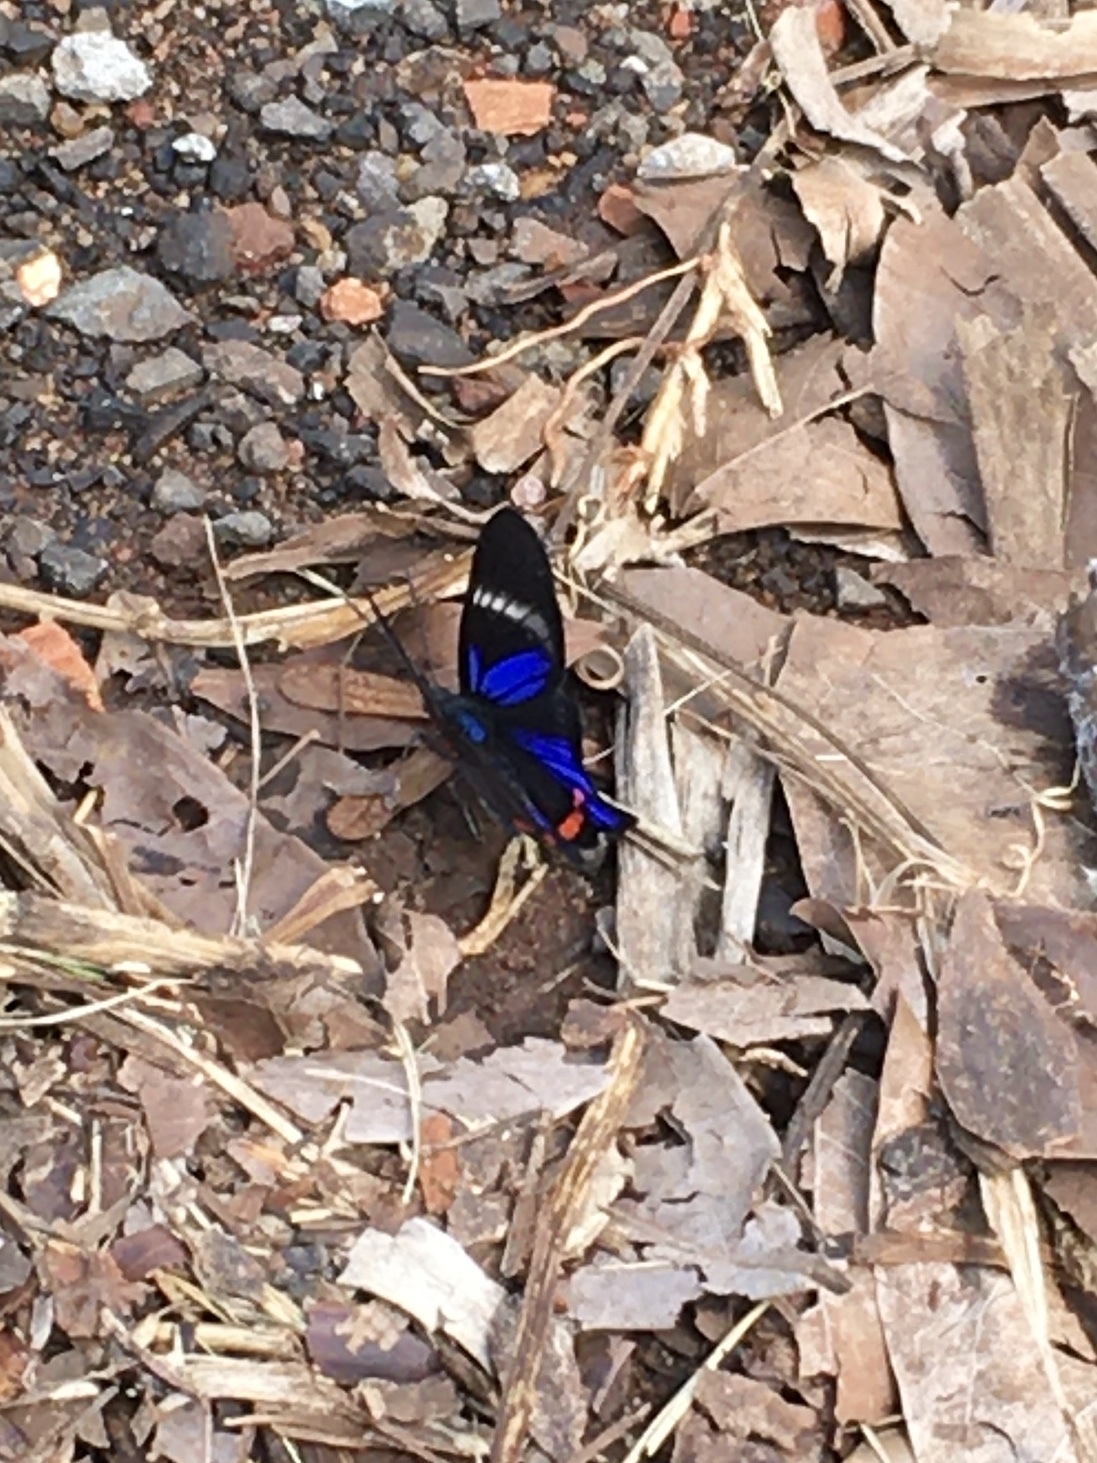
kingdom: Animalia
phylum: Arthropoda
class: Insecta
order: Lepidoptera
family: Riodinidae
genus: Rhetus
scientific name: Rhetus periander
